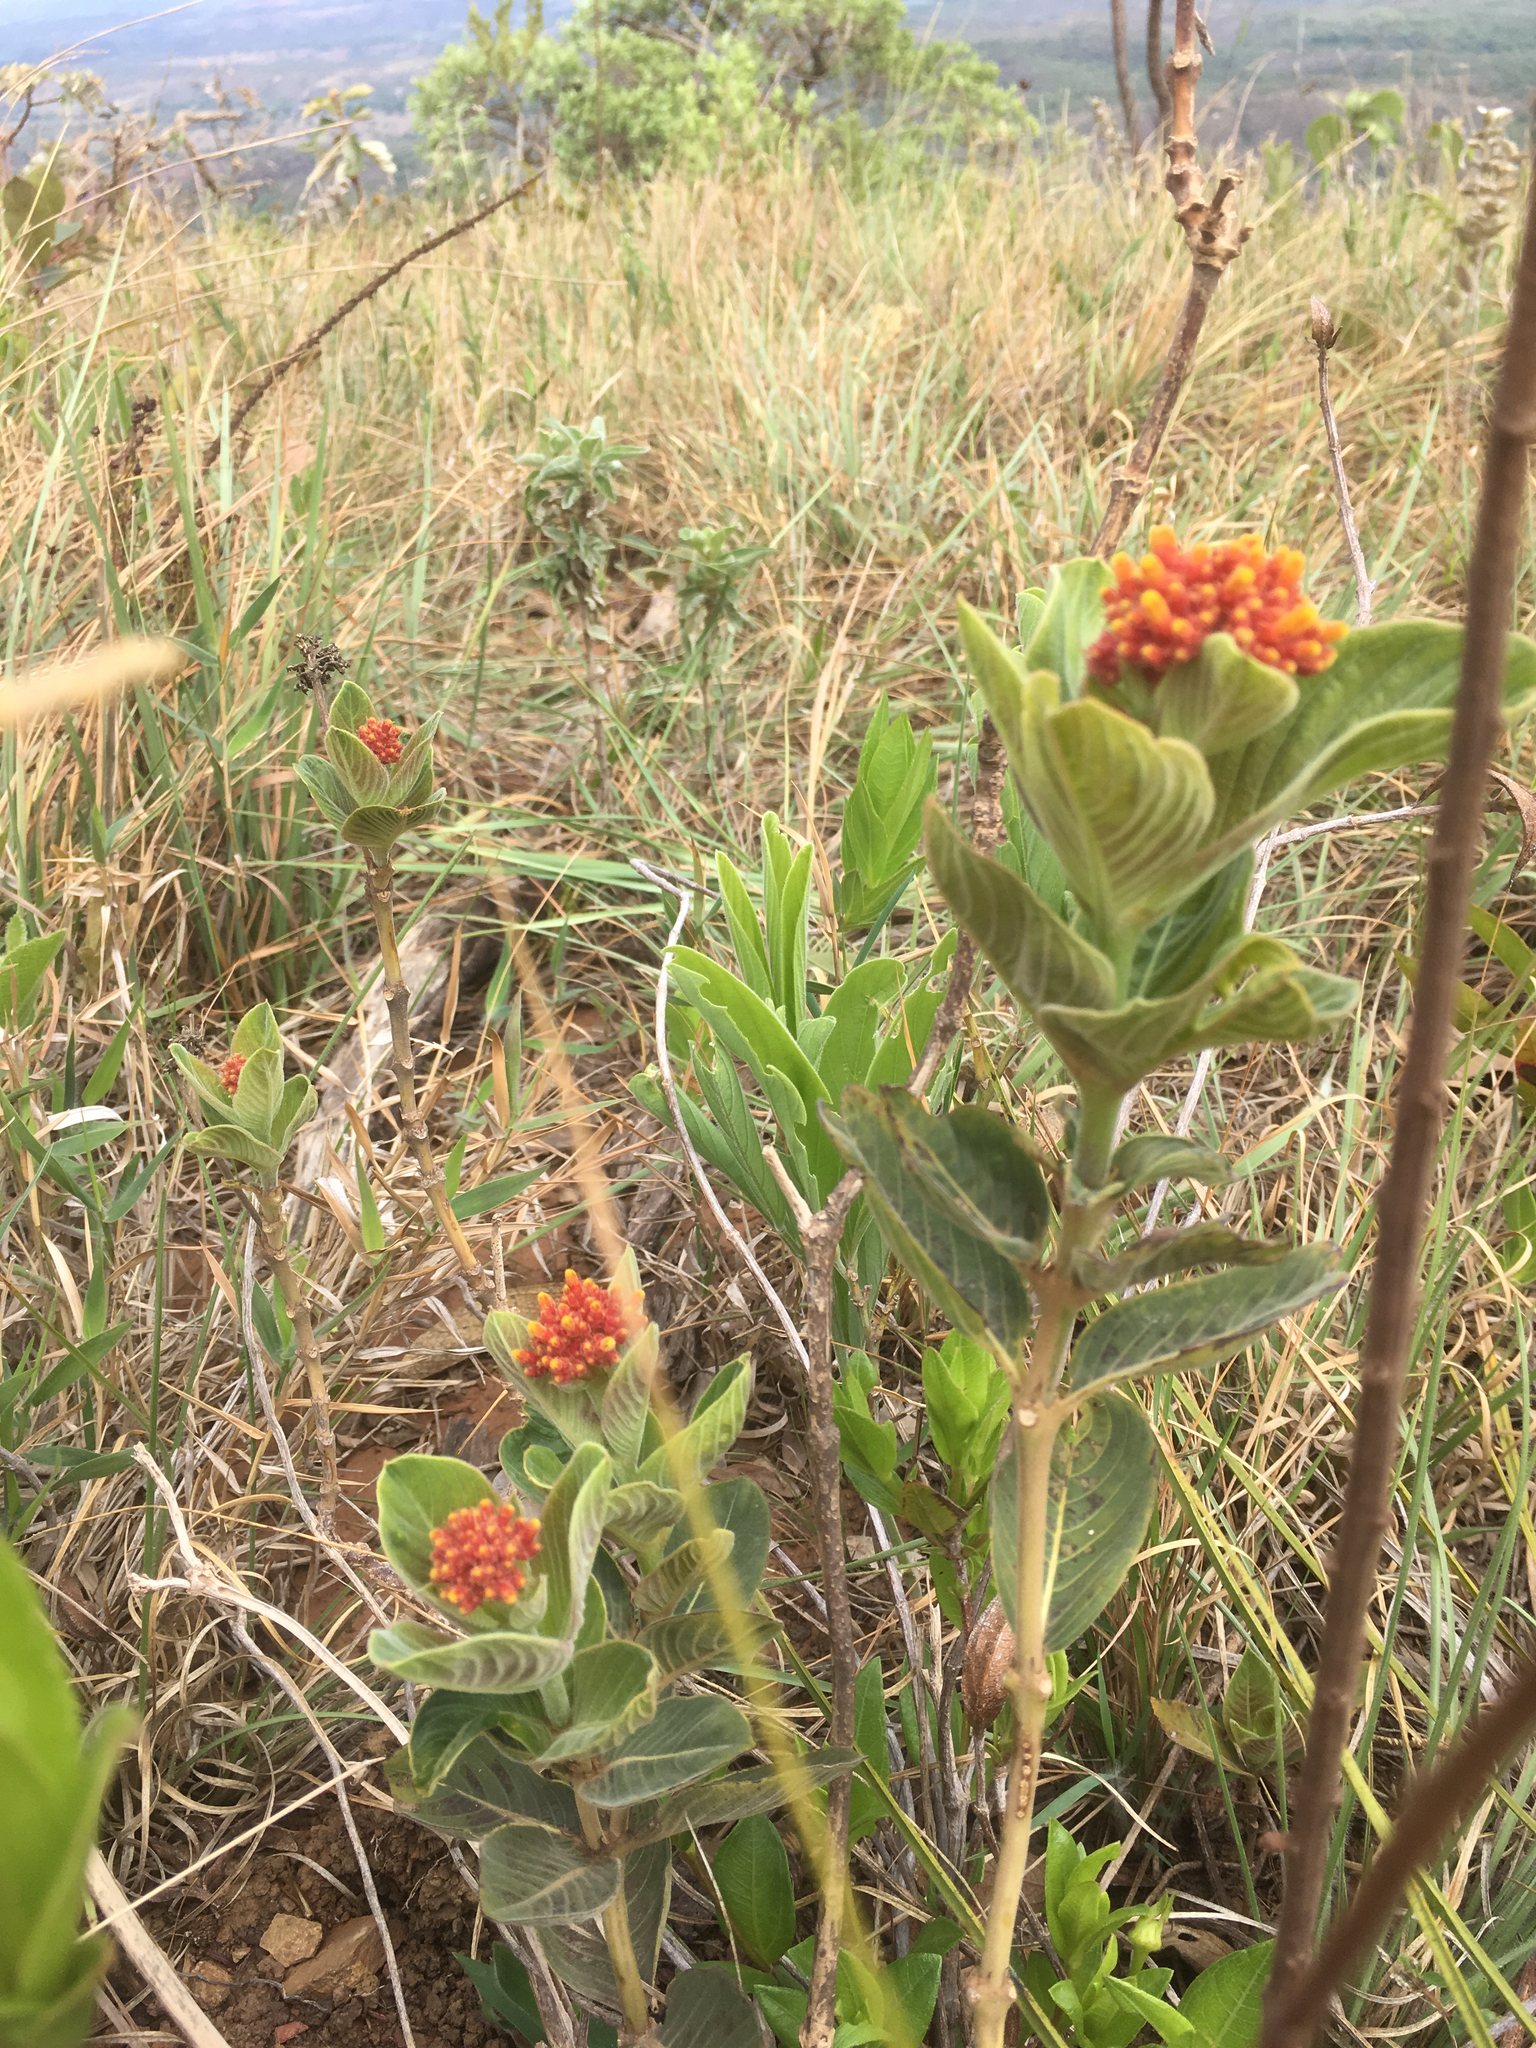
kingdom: Plantae
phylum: Tracheophyta
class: Magnoliopsida
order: Gentianales
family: Rubiaceae
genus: Palicourea
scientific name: Palicourea officinalis
